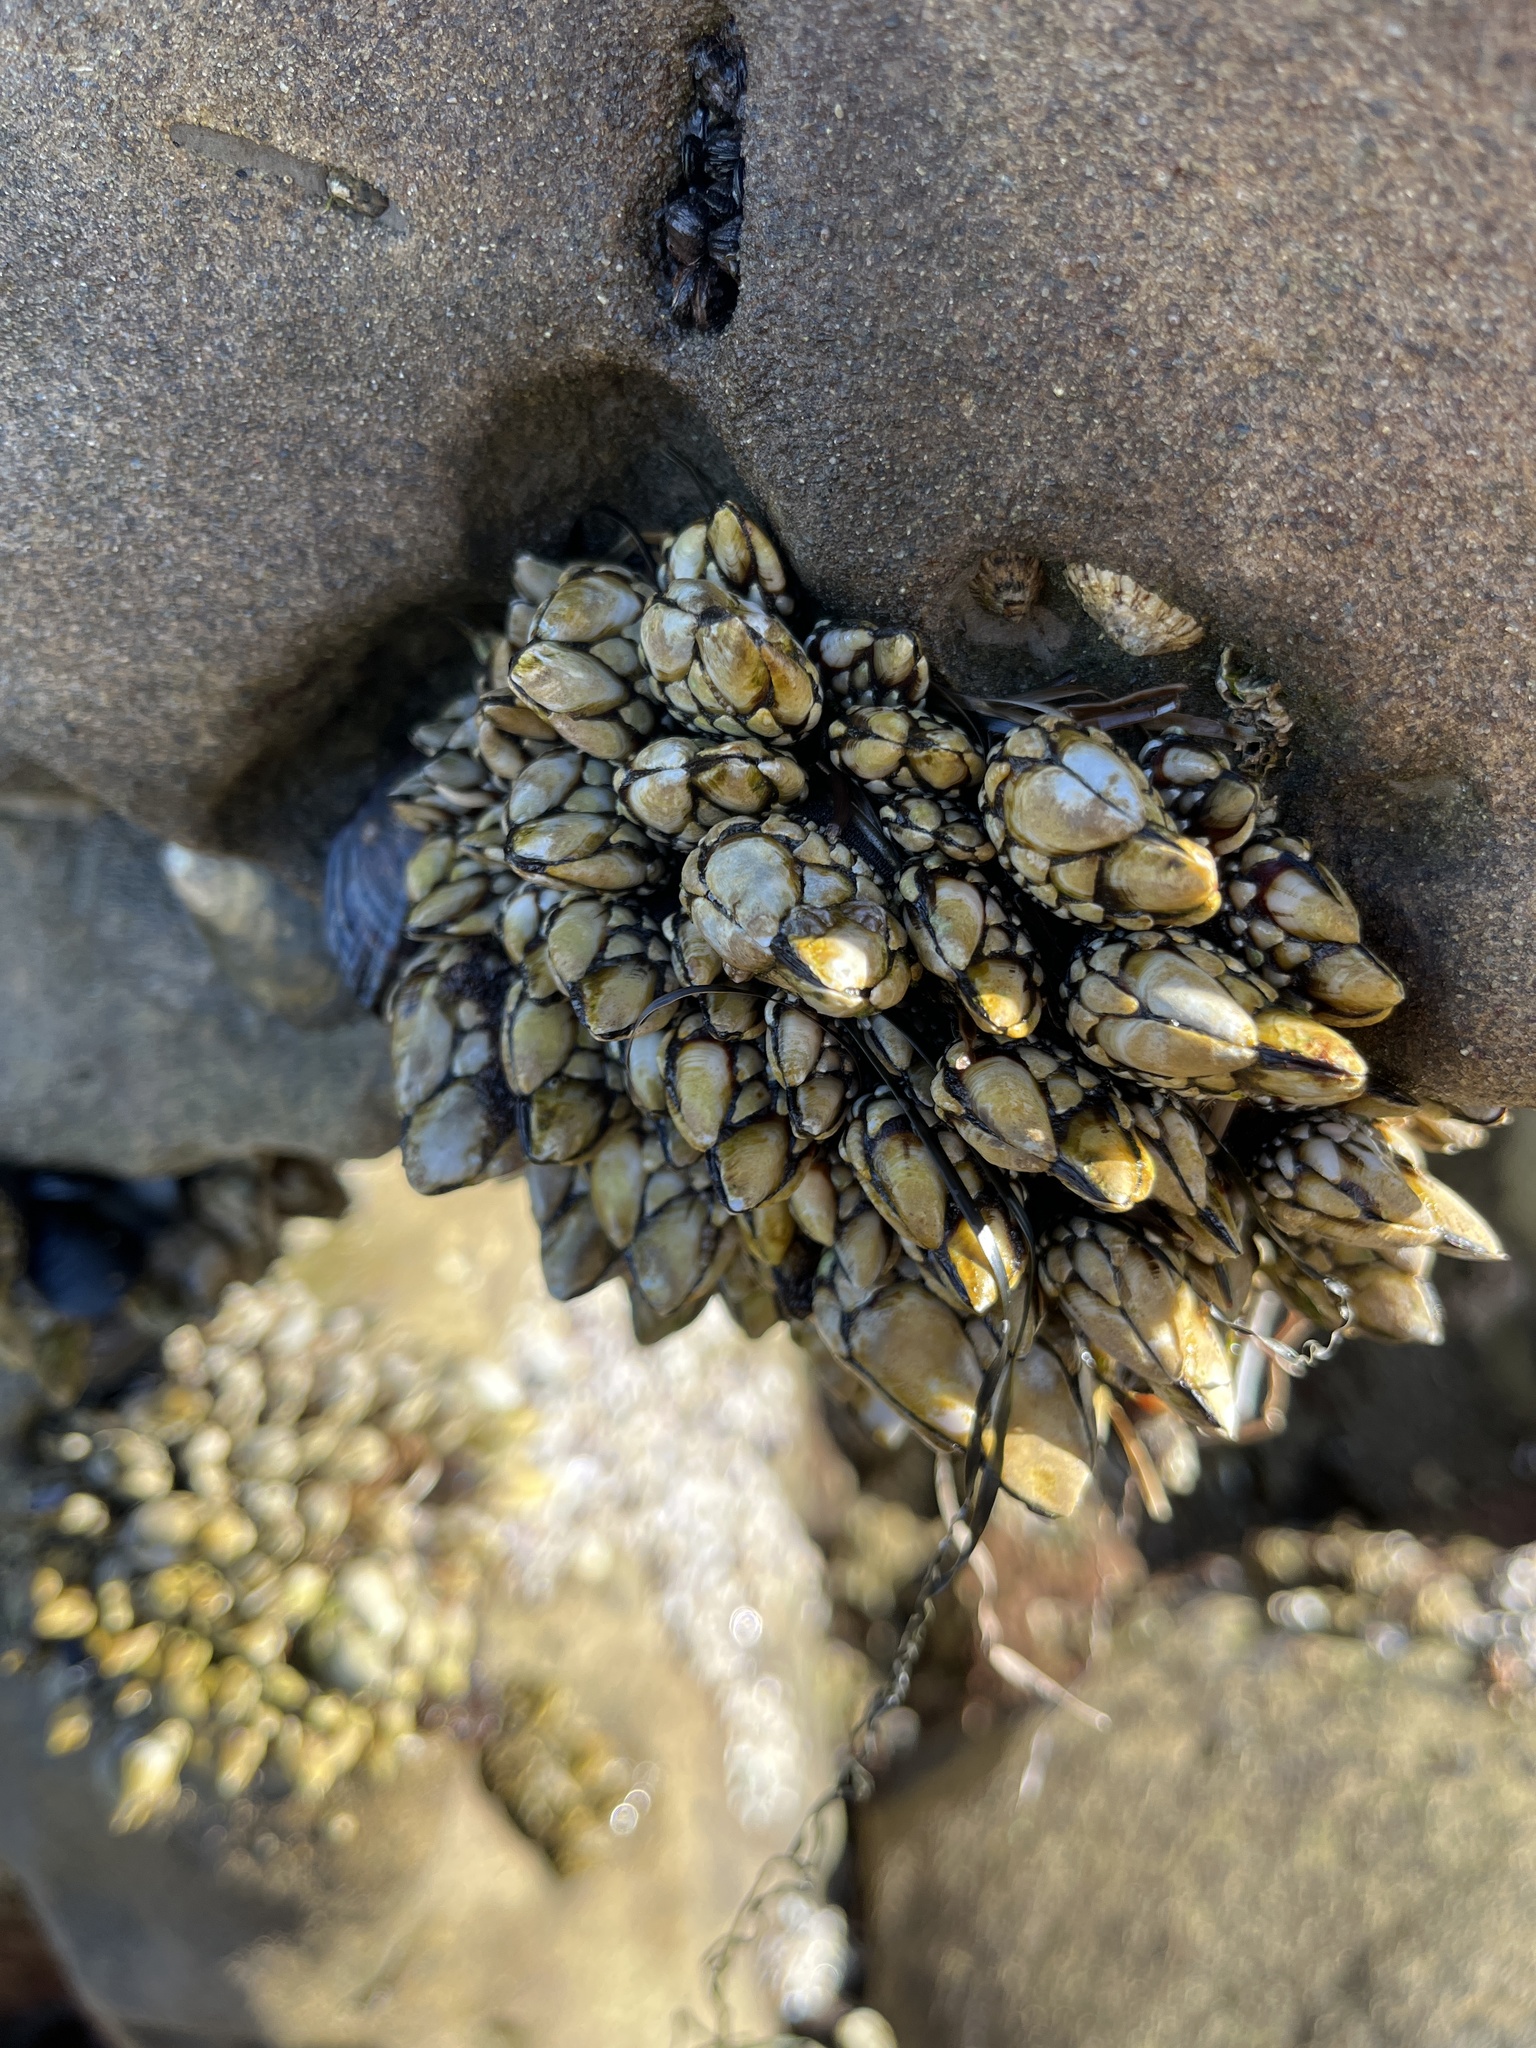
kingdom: Animalia
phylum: Arthropoda
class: Maxillopoda
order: Pedunculata
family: Pollicipedidae
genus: Pollicipes
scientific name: Pollicipes polymerus
